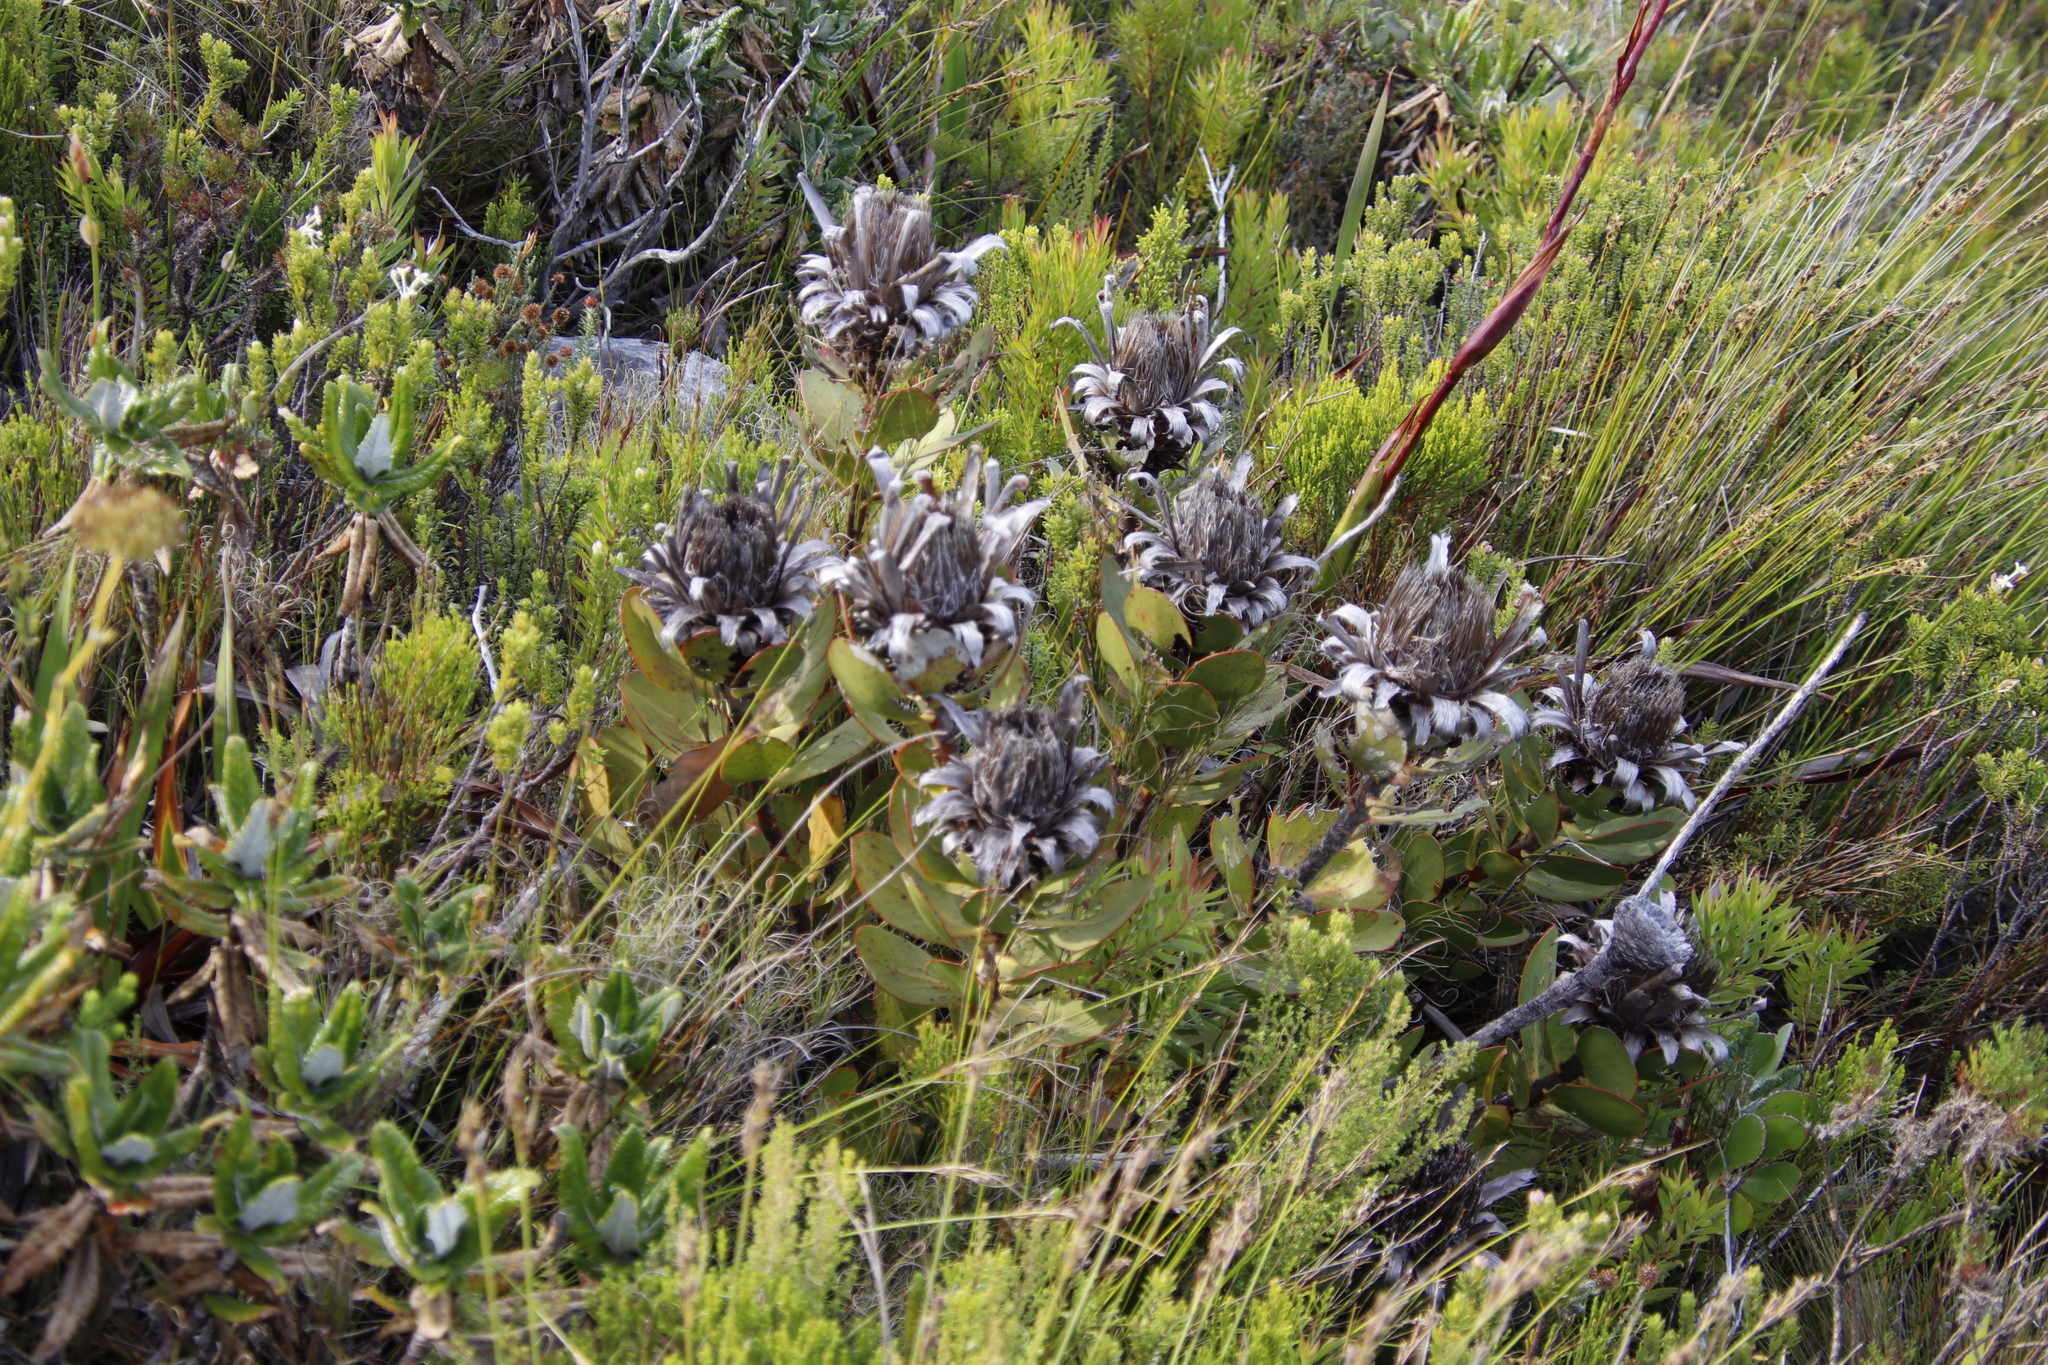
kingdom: Plantae
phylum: Tracheophyta
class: Magnoliopsida
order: Proteales
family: Proteaceae
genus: Protea
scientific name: Protea speciosa
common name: Brown-beard sugarbush
